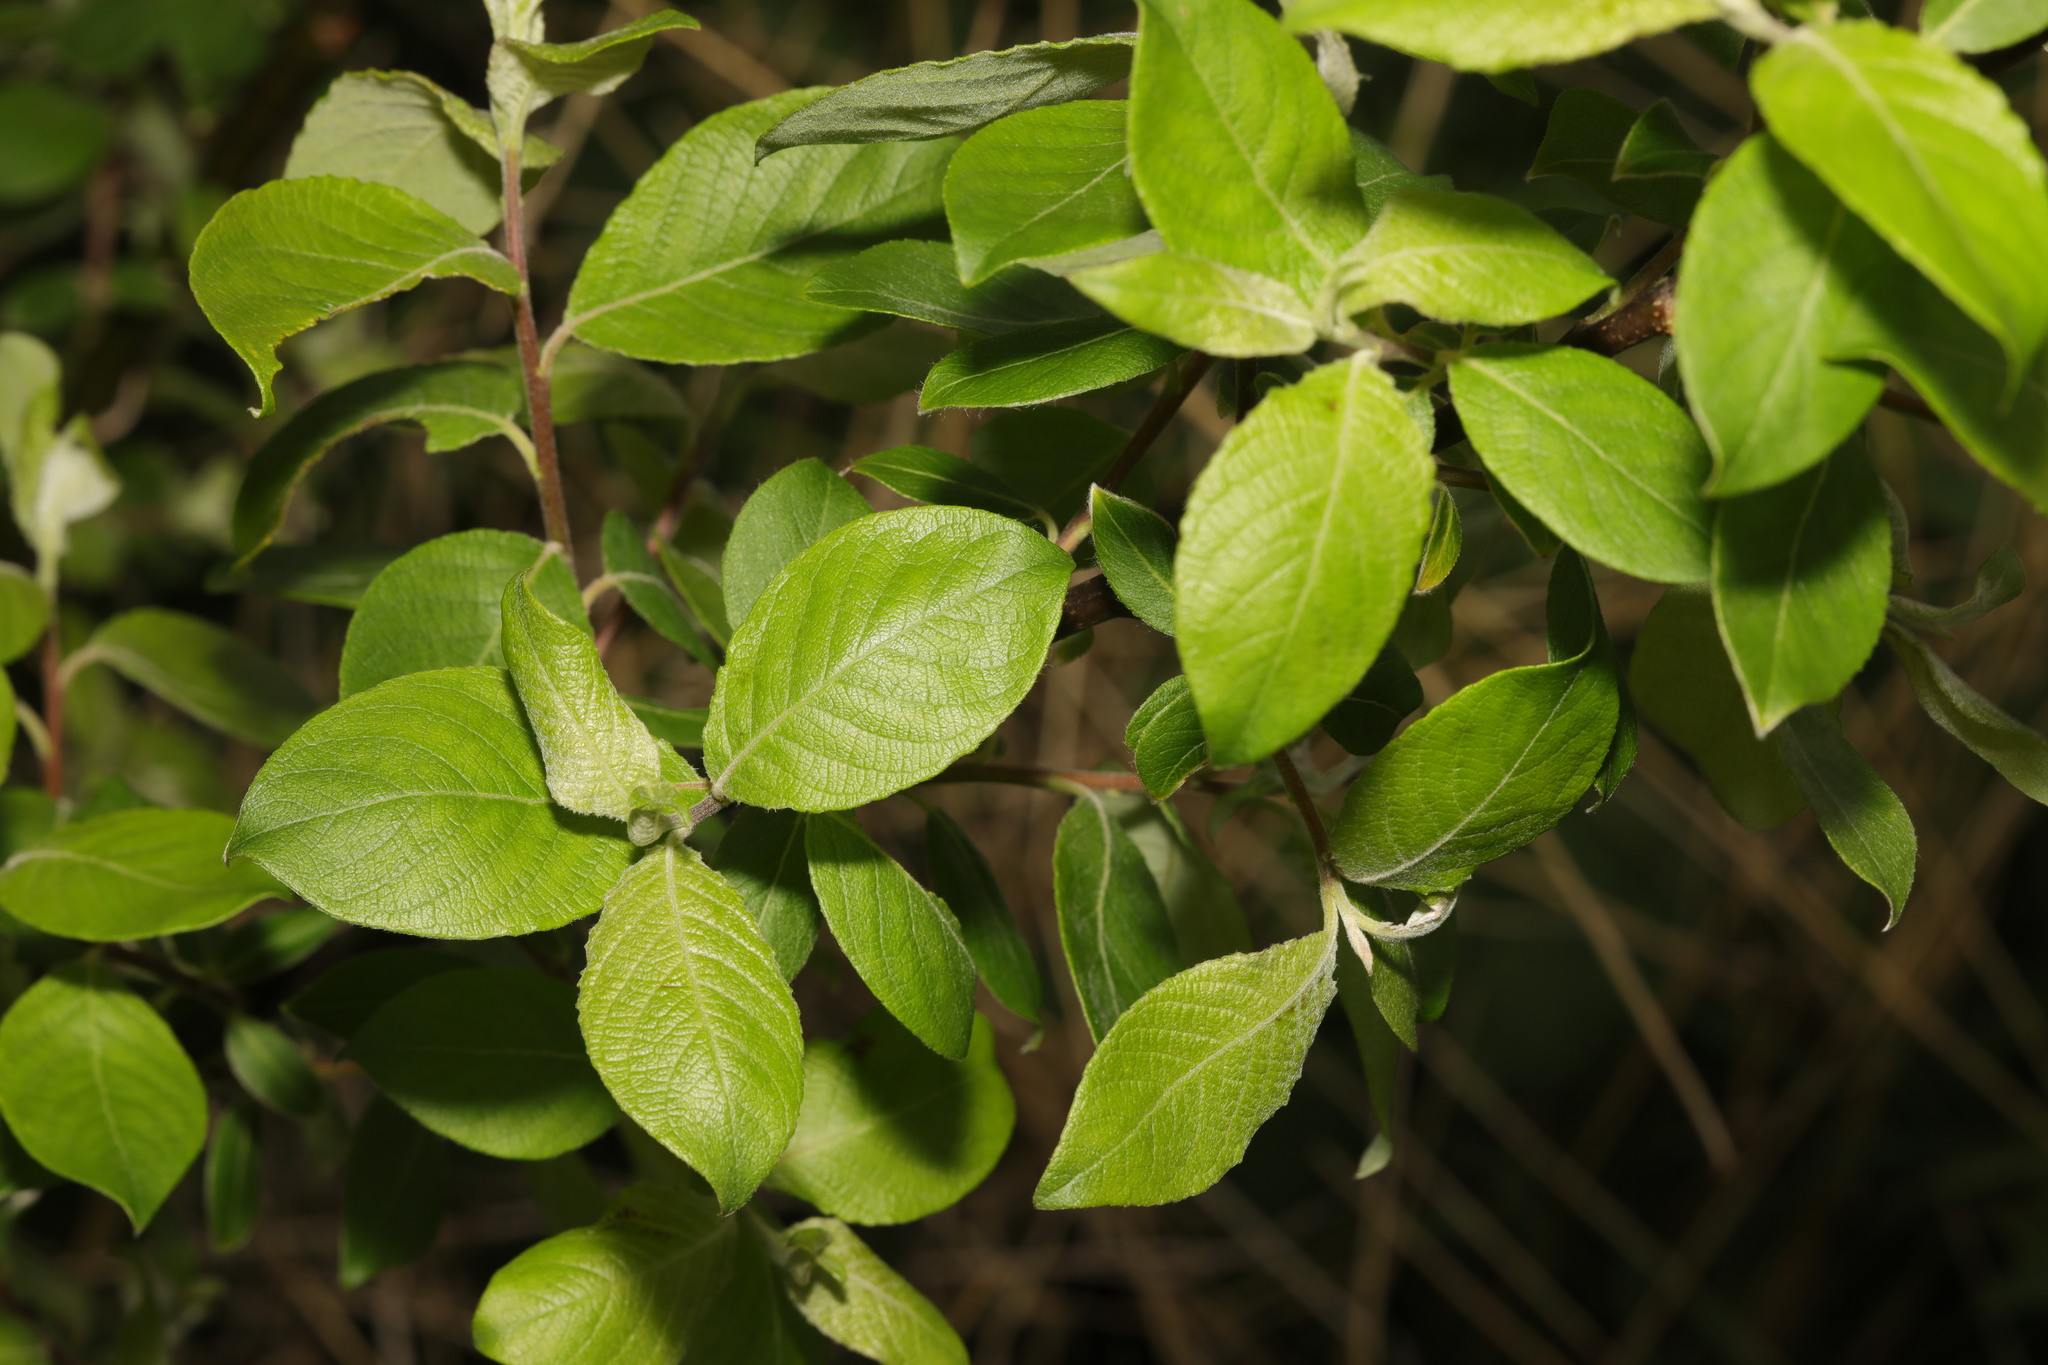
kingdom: Plantae
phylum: Tracheophyta
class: Magnoliopsida
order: Malpighiales
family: Salicaceae
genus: Salix
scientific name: Salix caprea
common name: Goat willow
